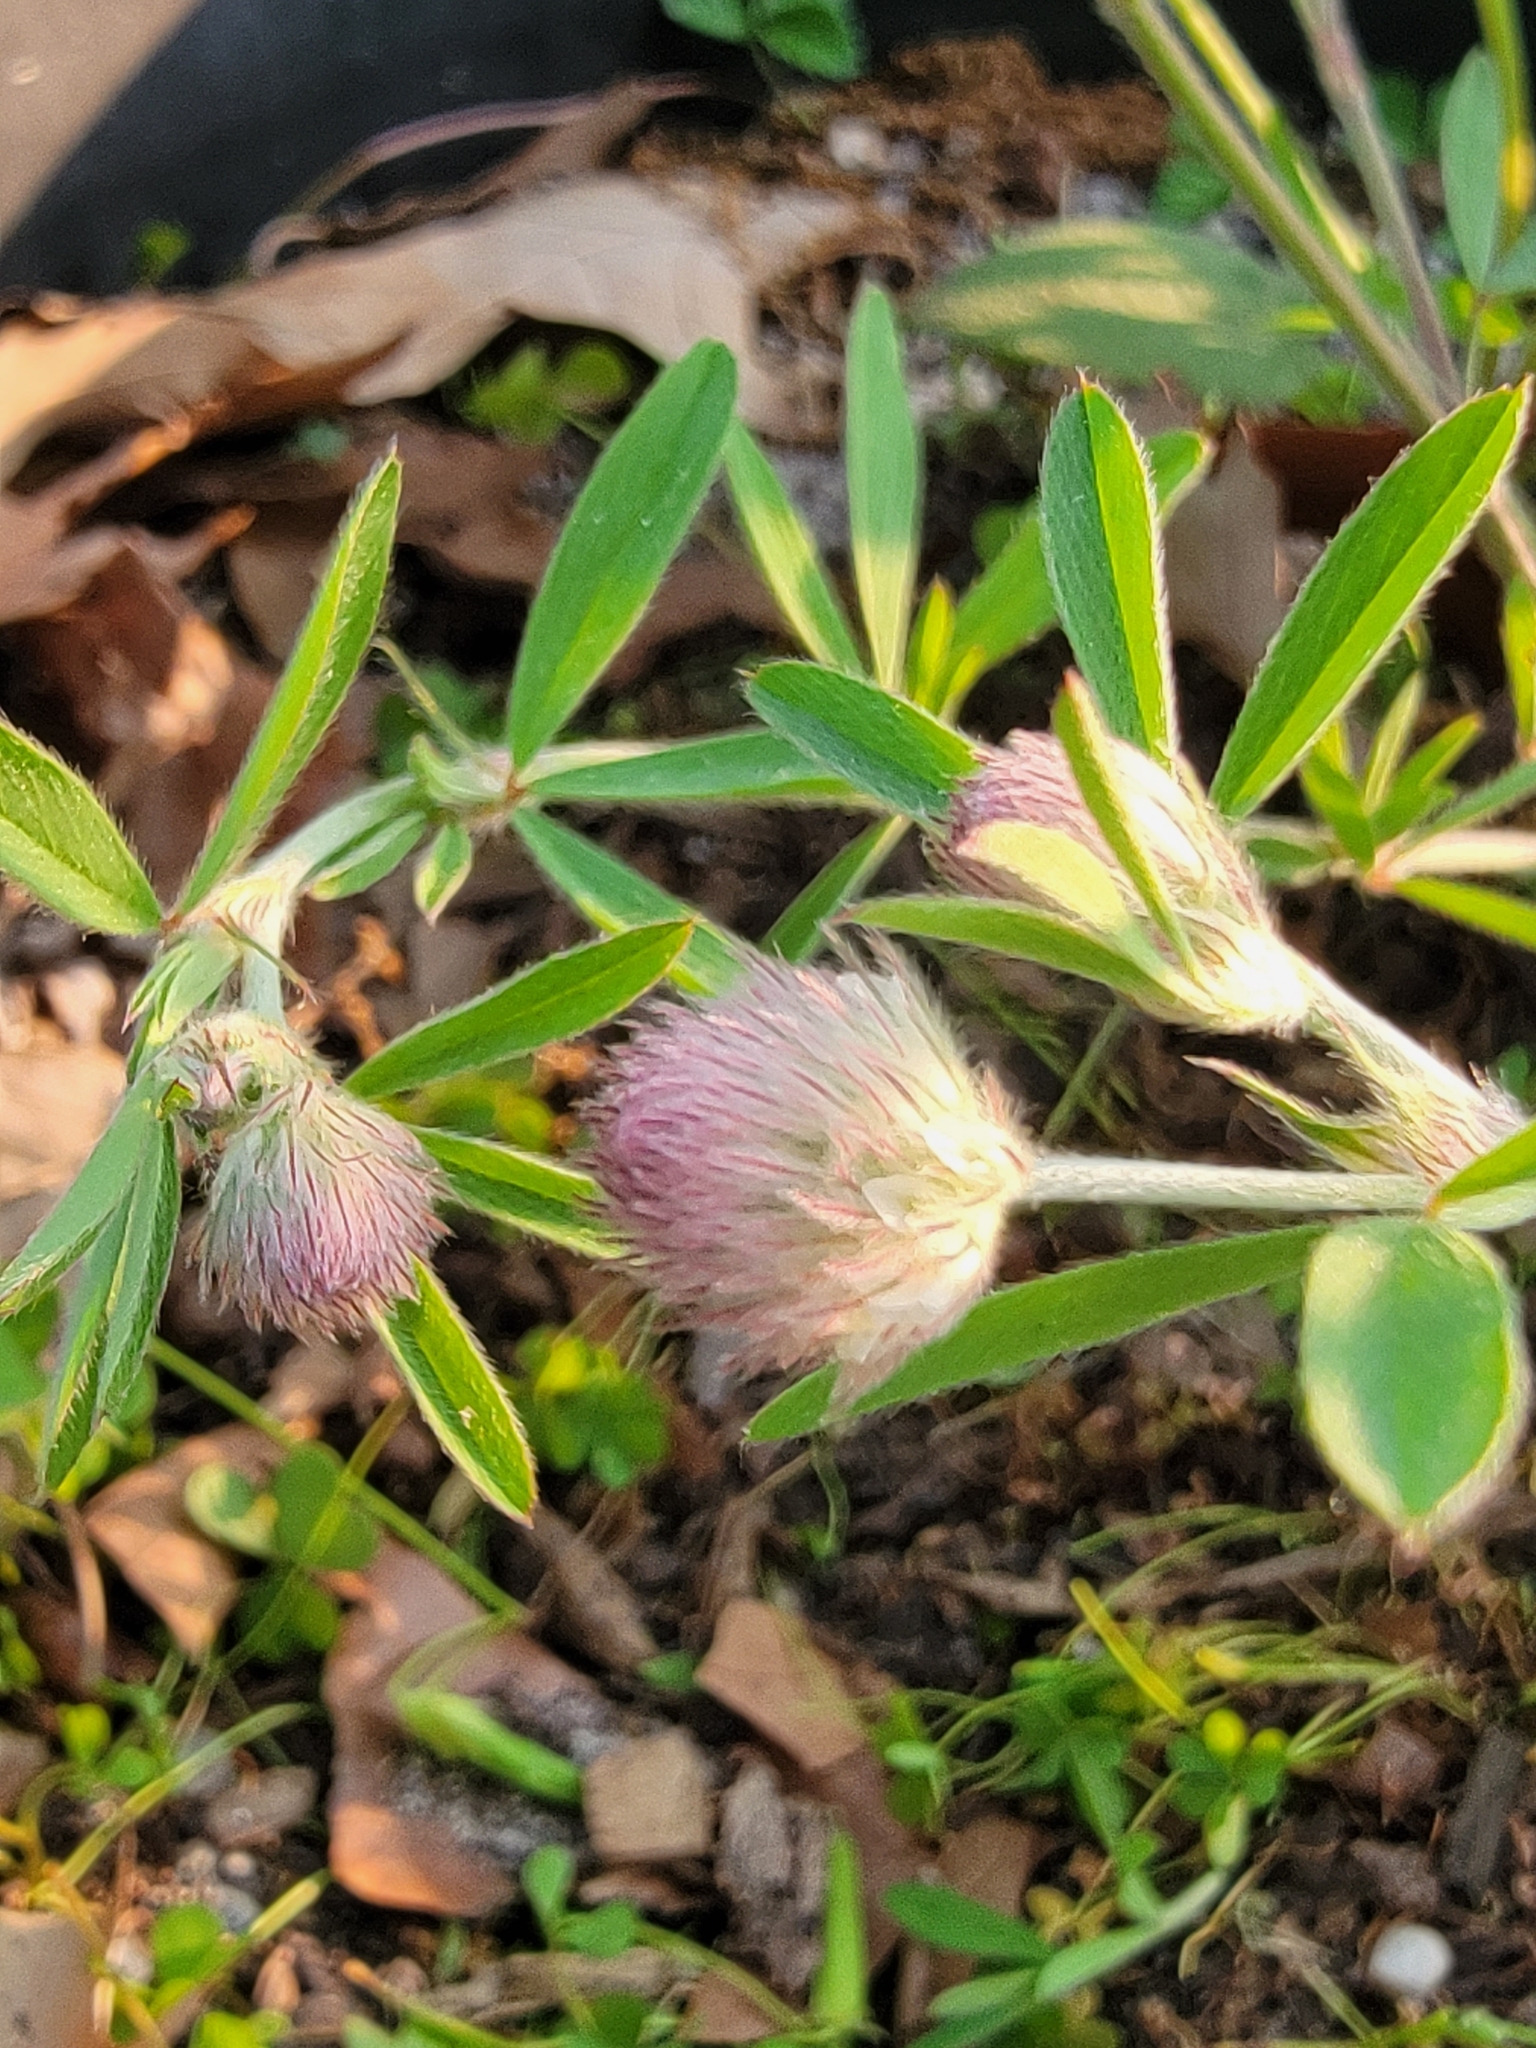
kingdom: Plantae
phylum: Tracheophyta
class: Magnoliopsida
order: Fabales
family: Fabaceae
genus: Trifolium
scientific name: Trifolium arvense
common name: Hare's-foot clover
